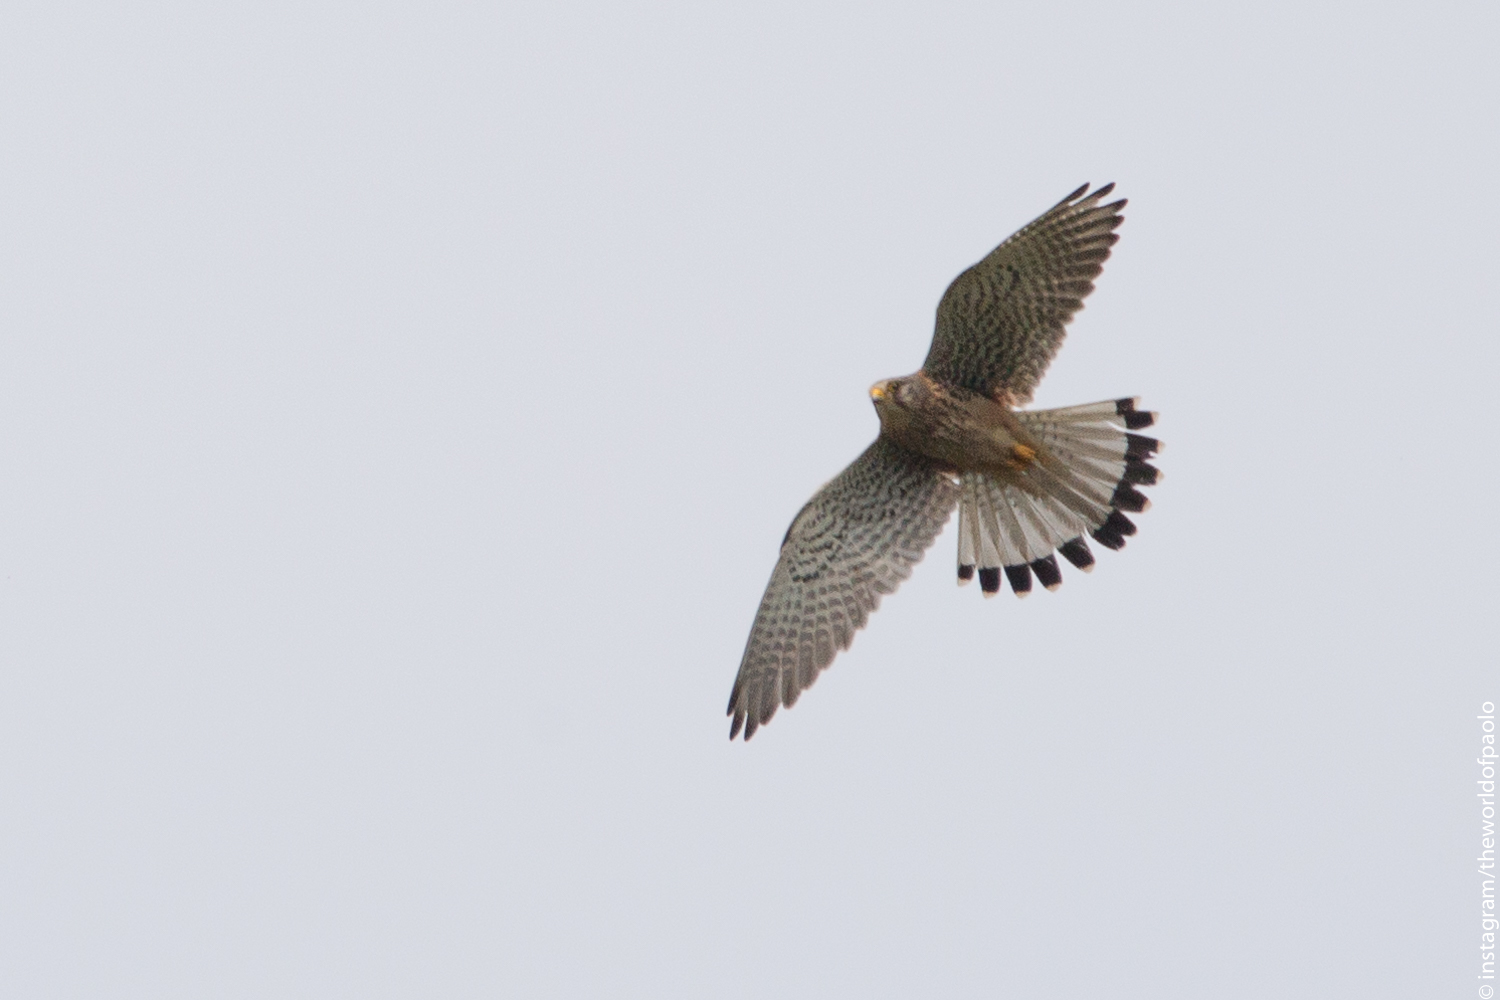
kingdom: Animalia
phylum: Chordata
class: Aves
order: Falconiformes
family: Falconidae
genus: Falco
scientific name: Falco tinnunculus
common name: Common kestrel
